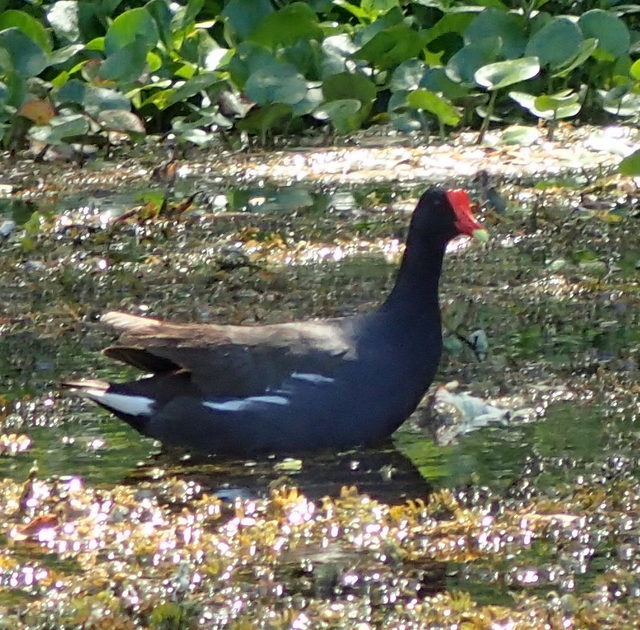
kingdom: Animalia
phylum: Chordata
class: Aves
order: Gruiformes
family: Rallidae
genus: Gallinula
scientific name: Gallinula chloropus
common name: Common moorhen
